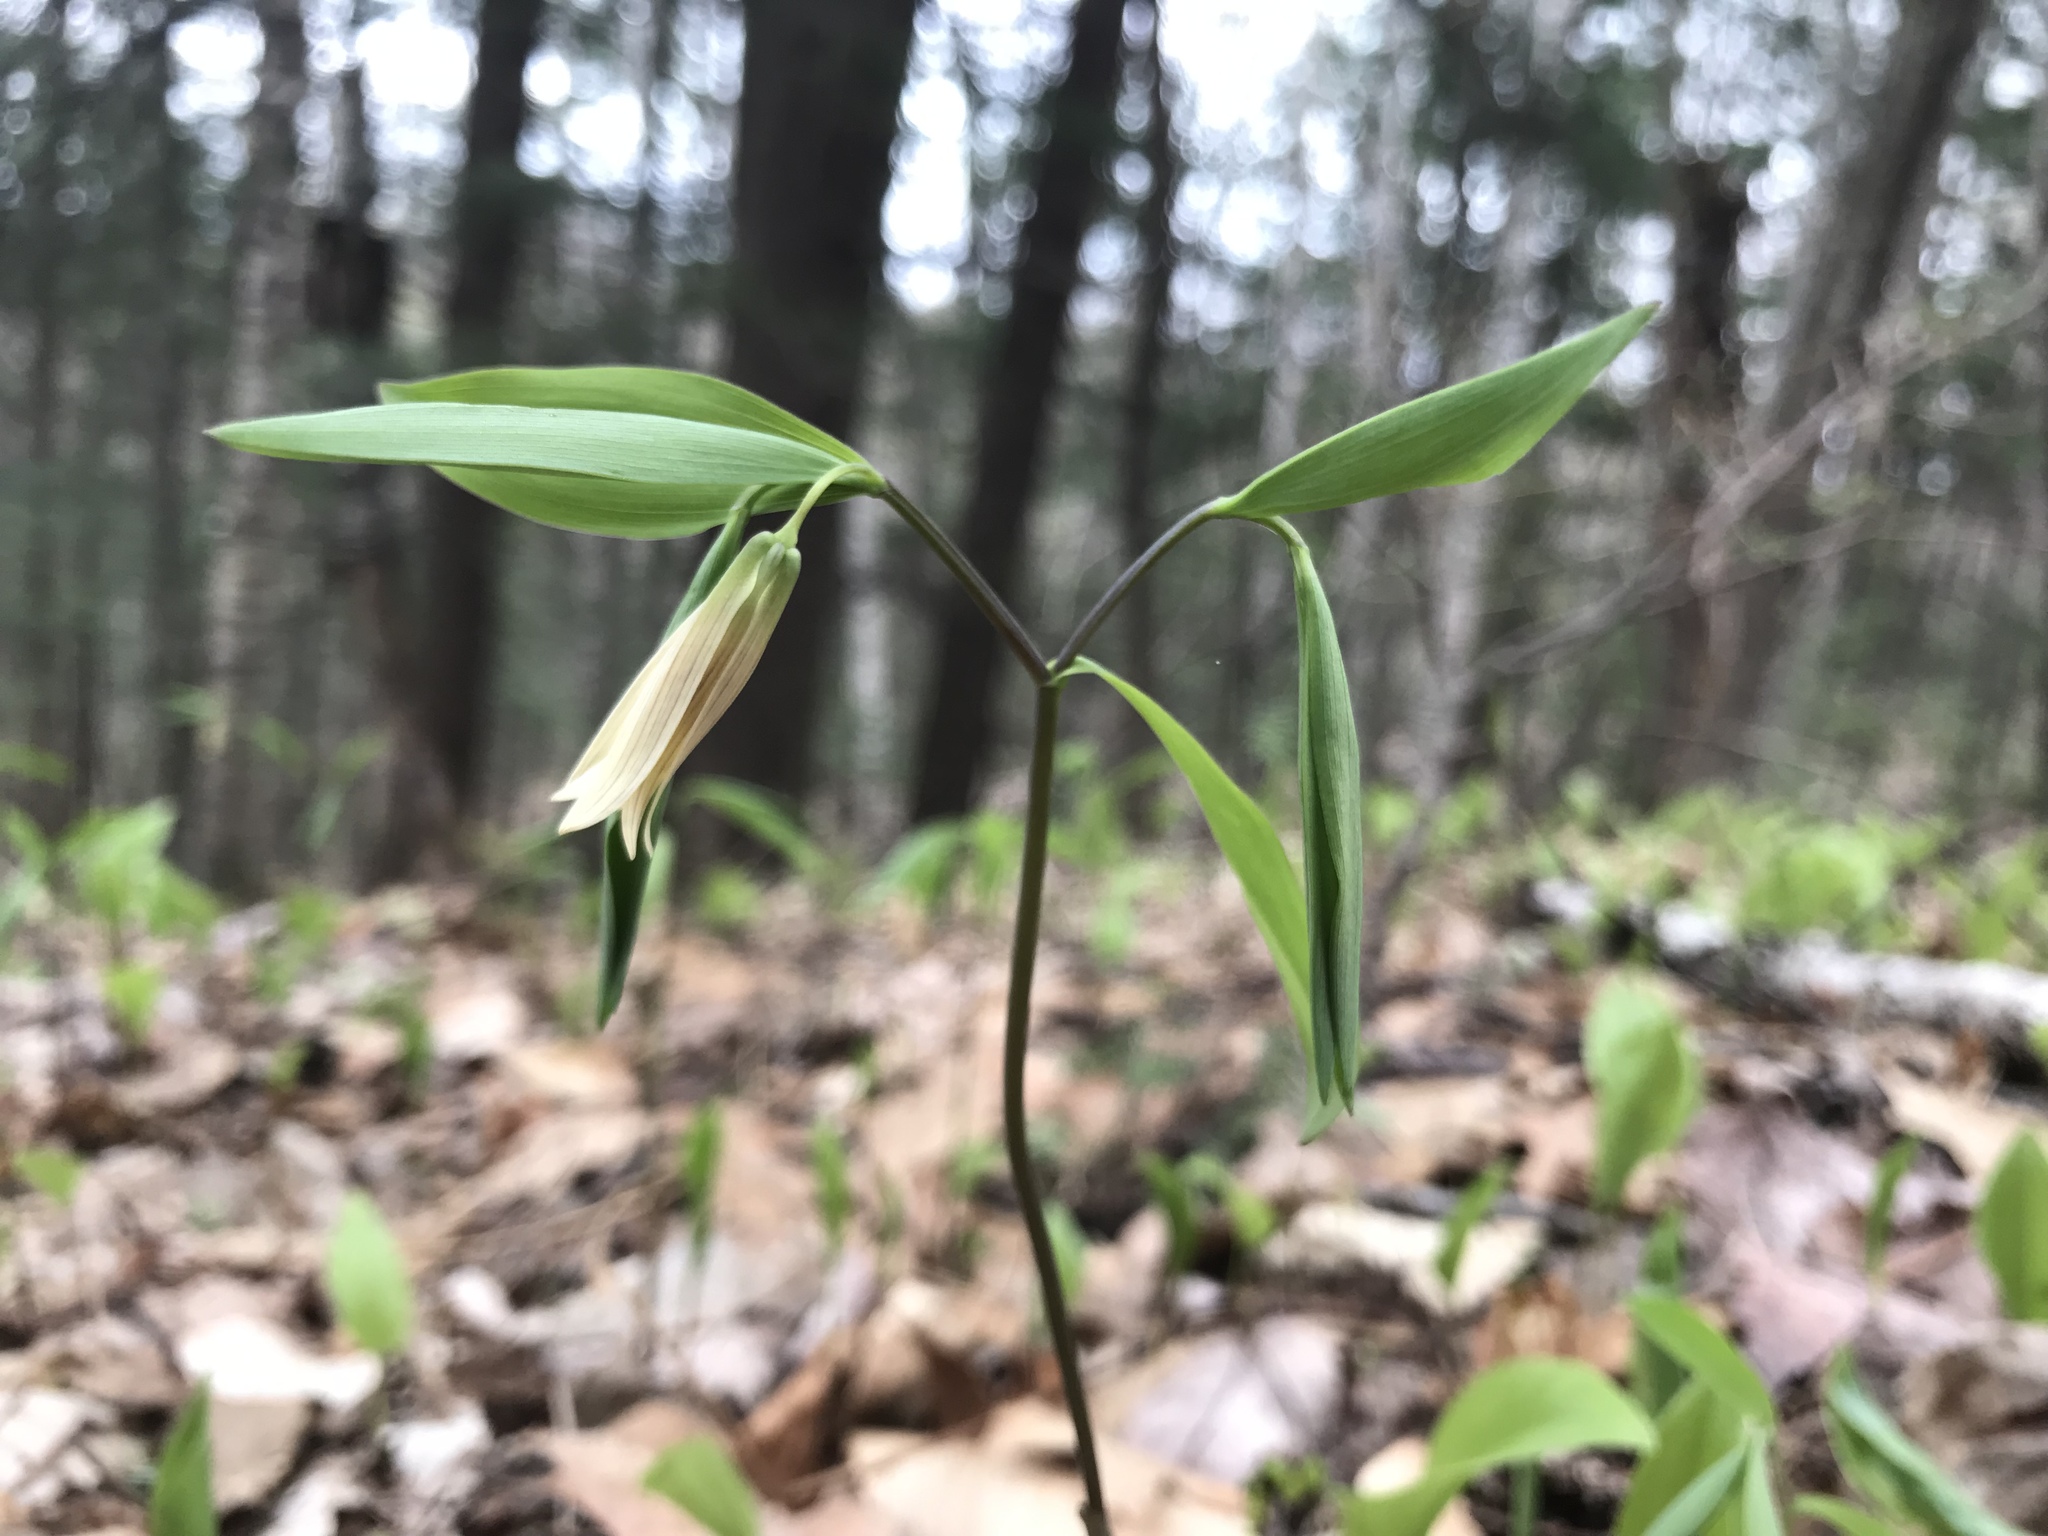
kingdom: Plantae
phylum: Tracheophyta
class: Liliopsida
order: Liliales
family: Colchicaceae
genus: Uvularia
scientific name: Uvularia sessilifolia
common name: Straw-lily
